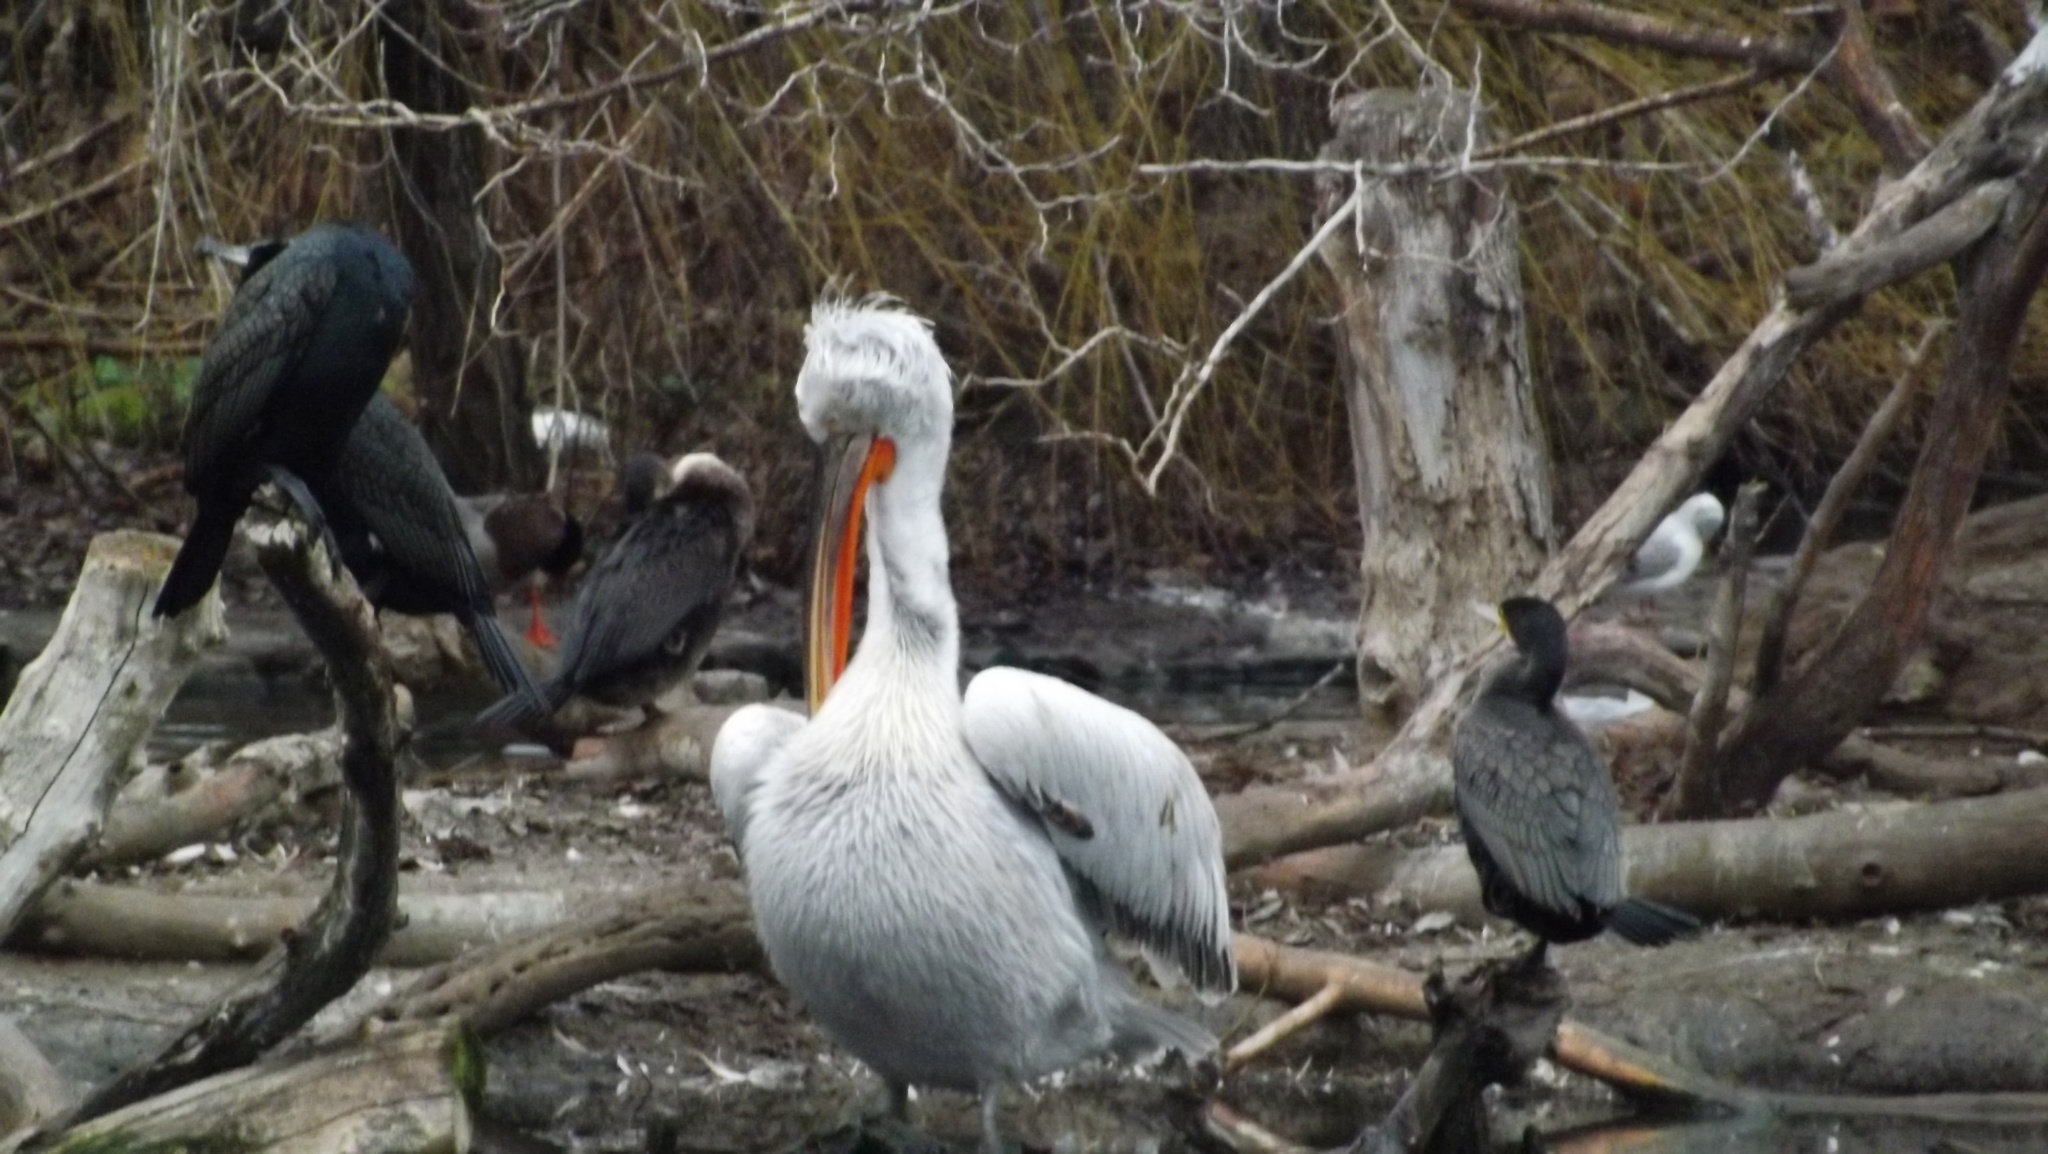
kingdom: Animalia
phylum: Chordata
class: Aves
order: Pelecaniformes
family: Pelecanidae
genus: Pelecanus
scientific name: Pelecanus crispus
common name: Dalmatian pelican
